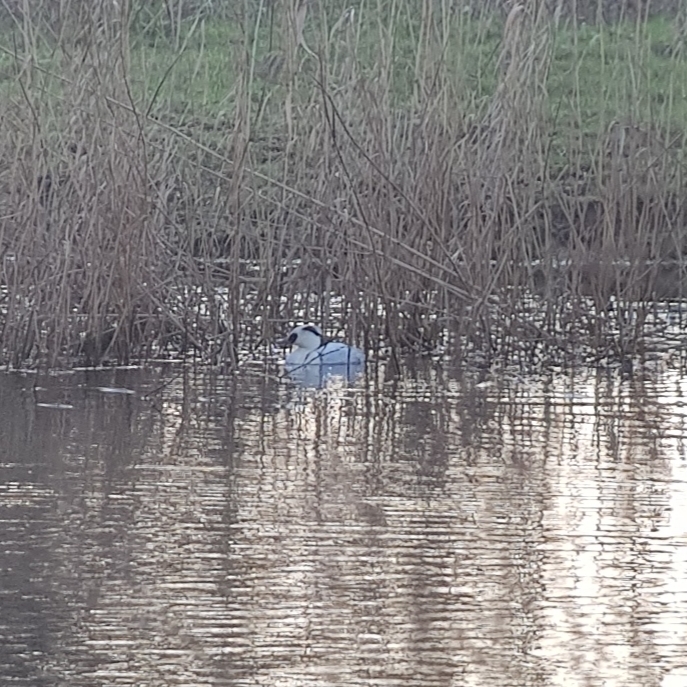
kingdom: Animalia
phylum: Chordata
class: Aves
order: Anseriformes
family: Anatidae
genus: Mergellus
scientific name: Mergellus albellus
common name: Smew
